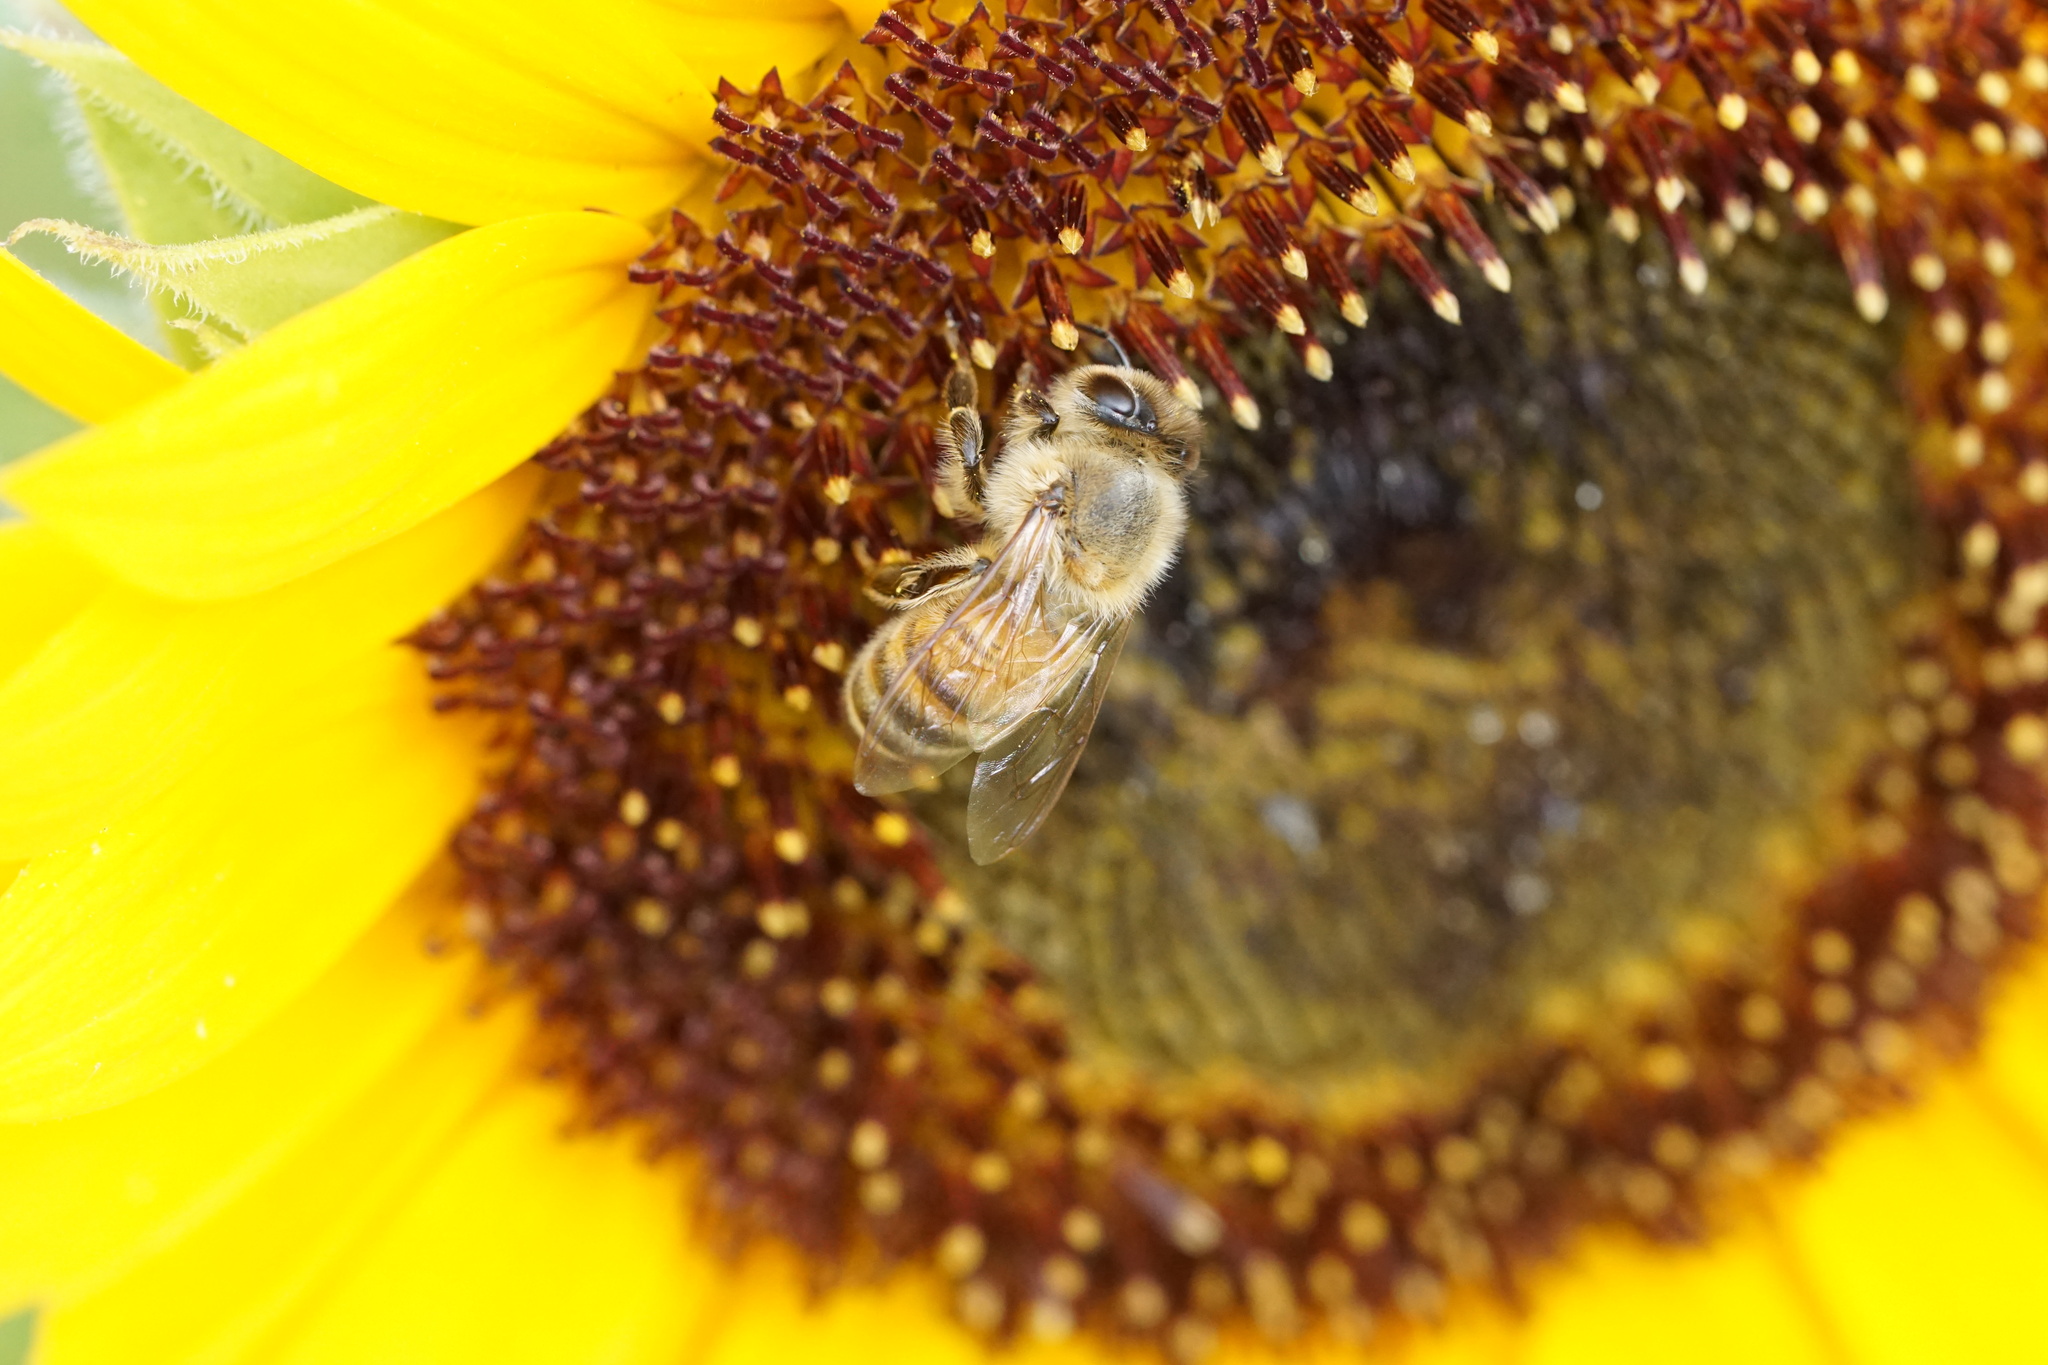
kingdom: Animalia
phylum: Arthropoda
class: Insecta
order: Hymenoptera
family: Apidae
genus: Apis
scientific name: Apis mellifera
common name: Honey bee
